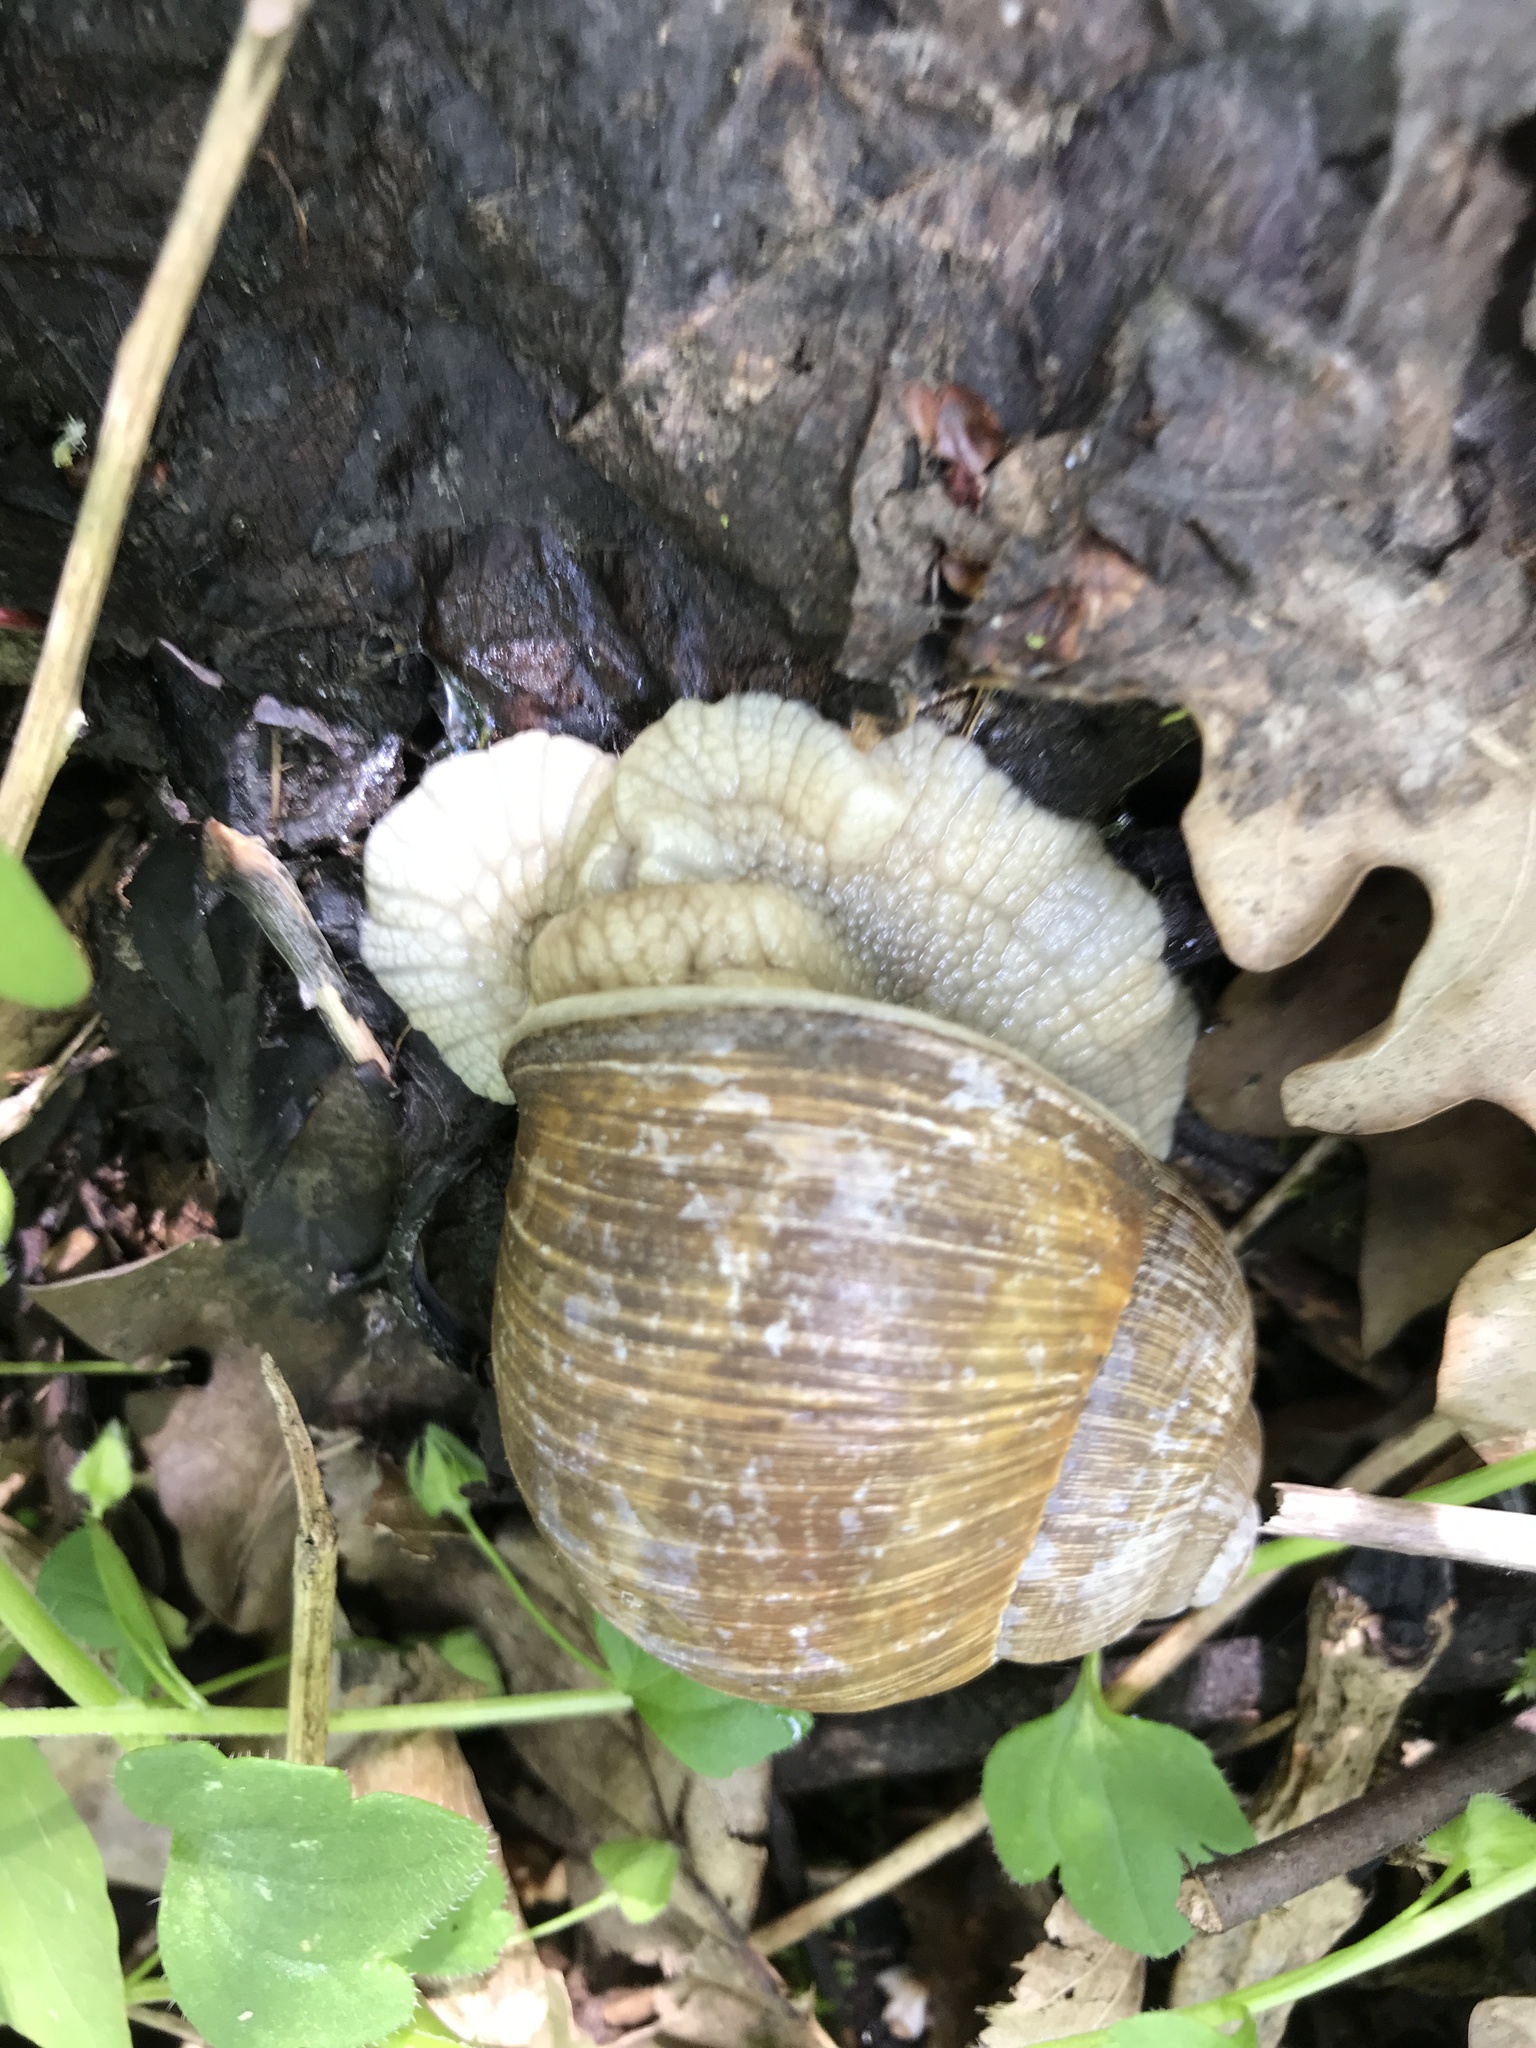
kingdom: Animalia
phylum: Mollusca
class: Gastropoda
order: Stylommatophora
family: Helicidae
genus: Helix
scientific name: Helix pomatia
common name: Roman snail
